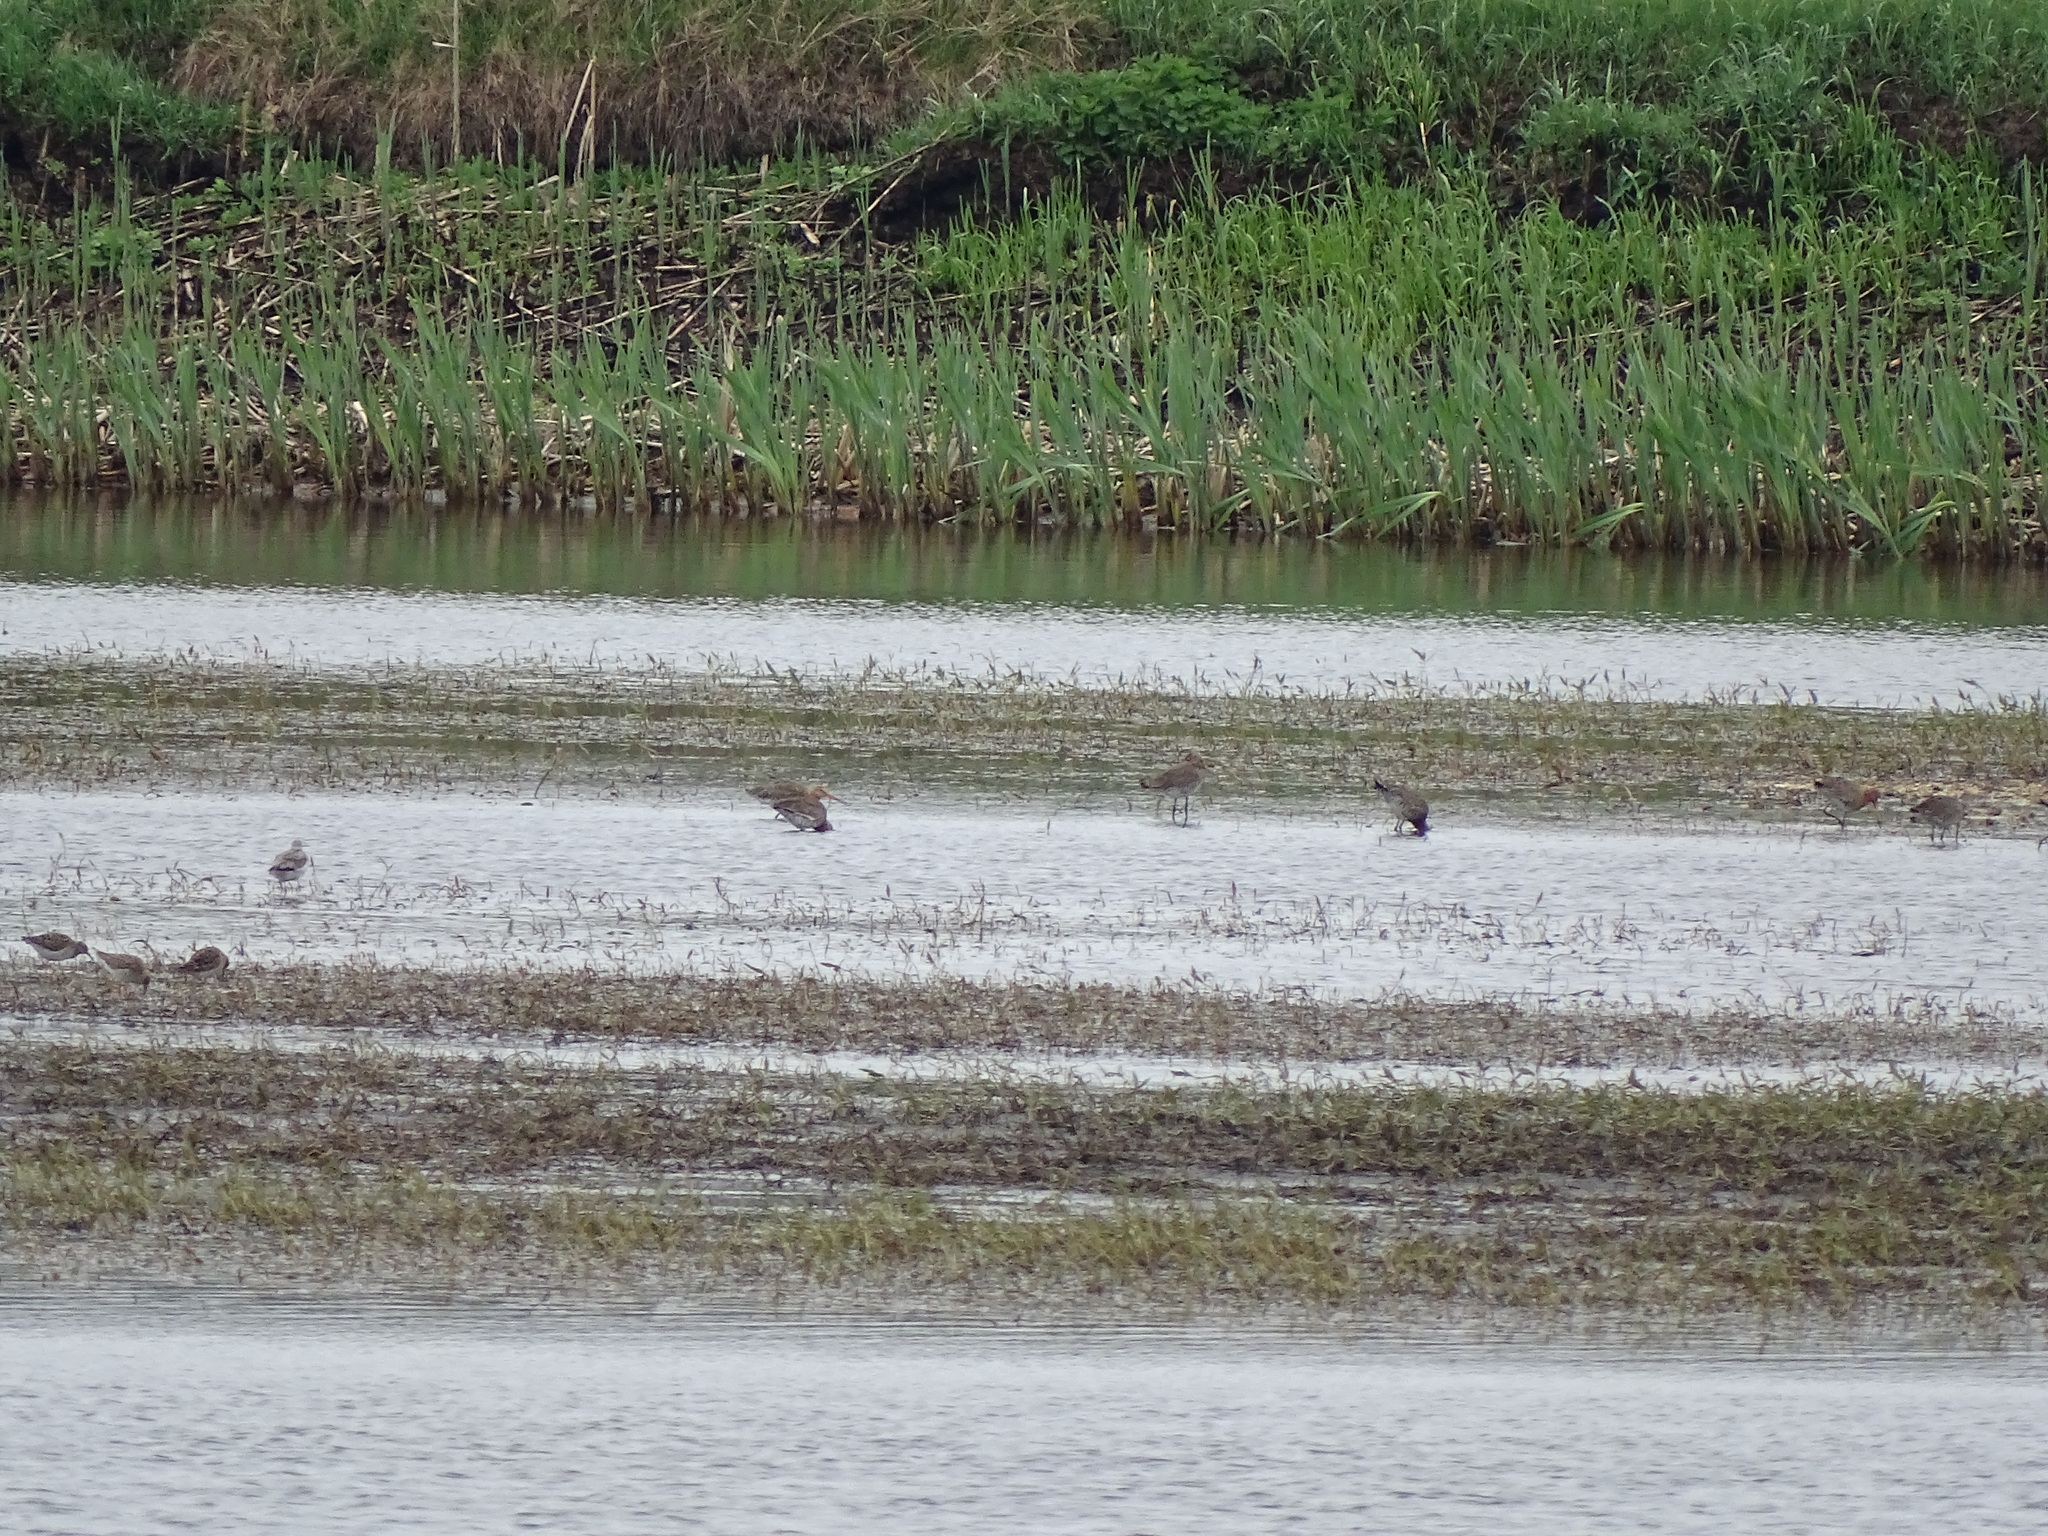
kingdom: Animalia
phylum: Chordata
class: Aves
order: Charadriiformes
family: Scolopacidae
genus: Calidris
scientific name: Calidris pugnax
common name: Ruff
